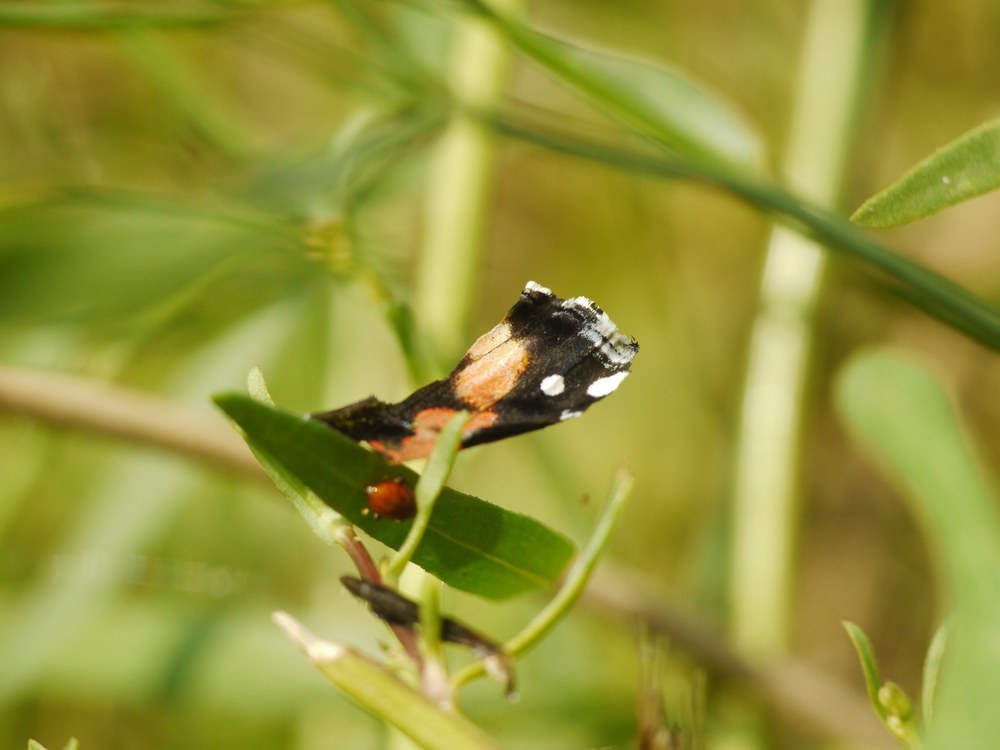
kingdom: Animalia
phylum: Arthropoda
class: Insecta
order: Lepidoptera
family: Nymphalidae
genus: Vanessa
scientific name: Vanessa atalanta
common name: Red admiral
